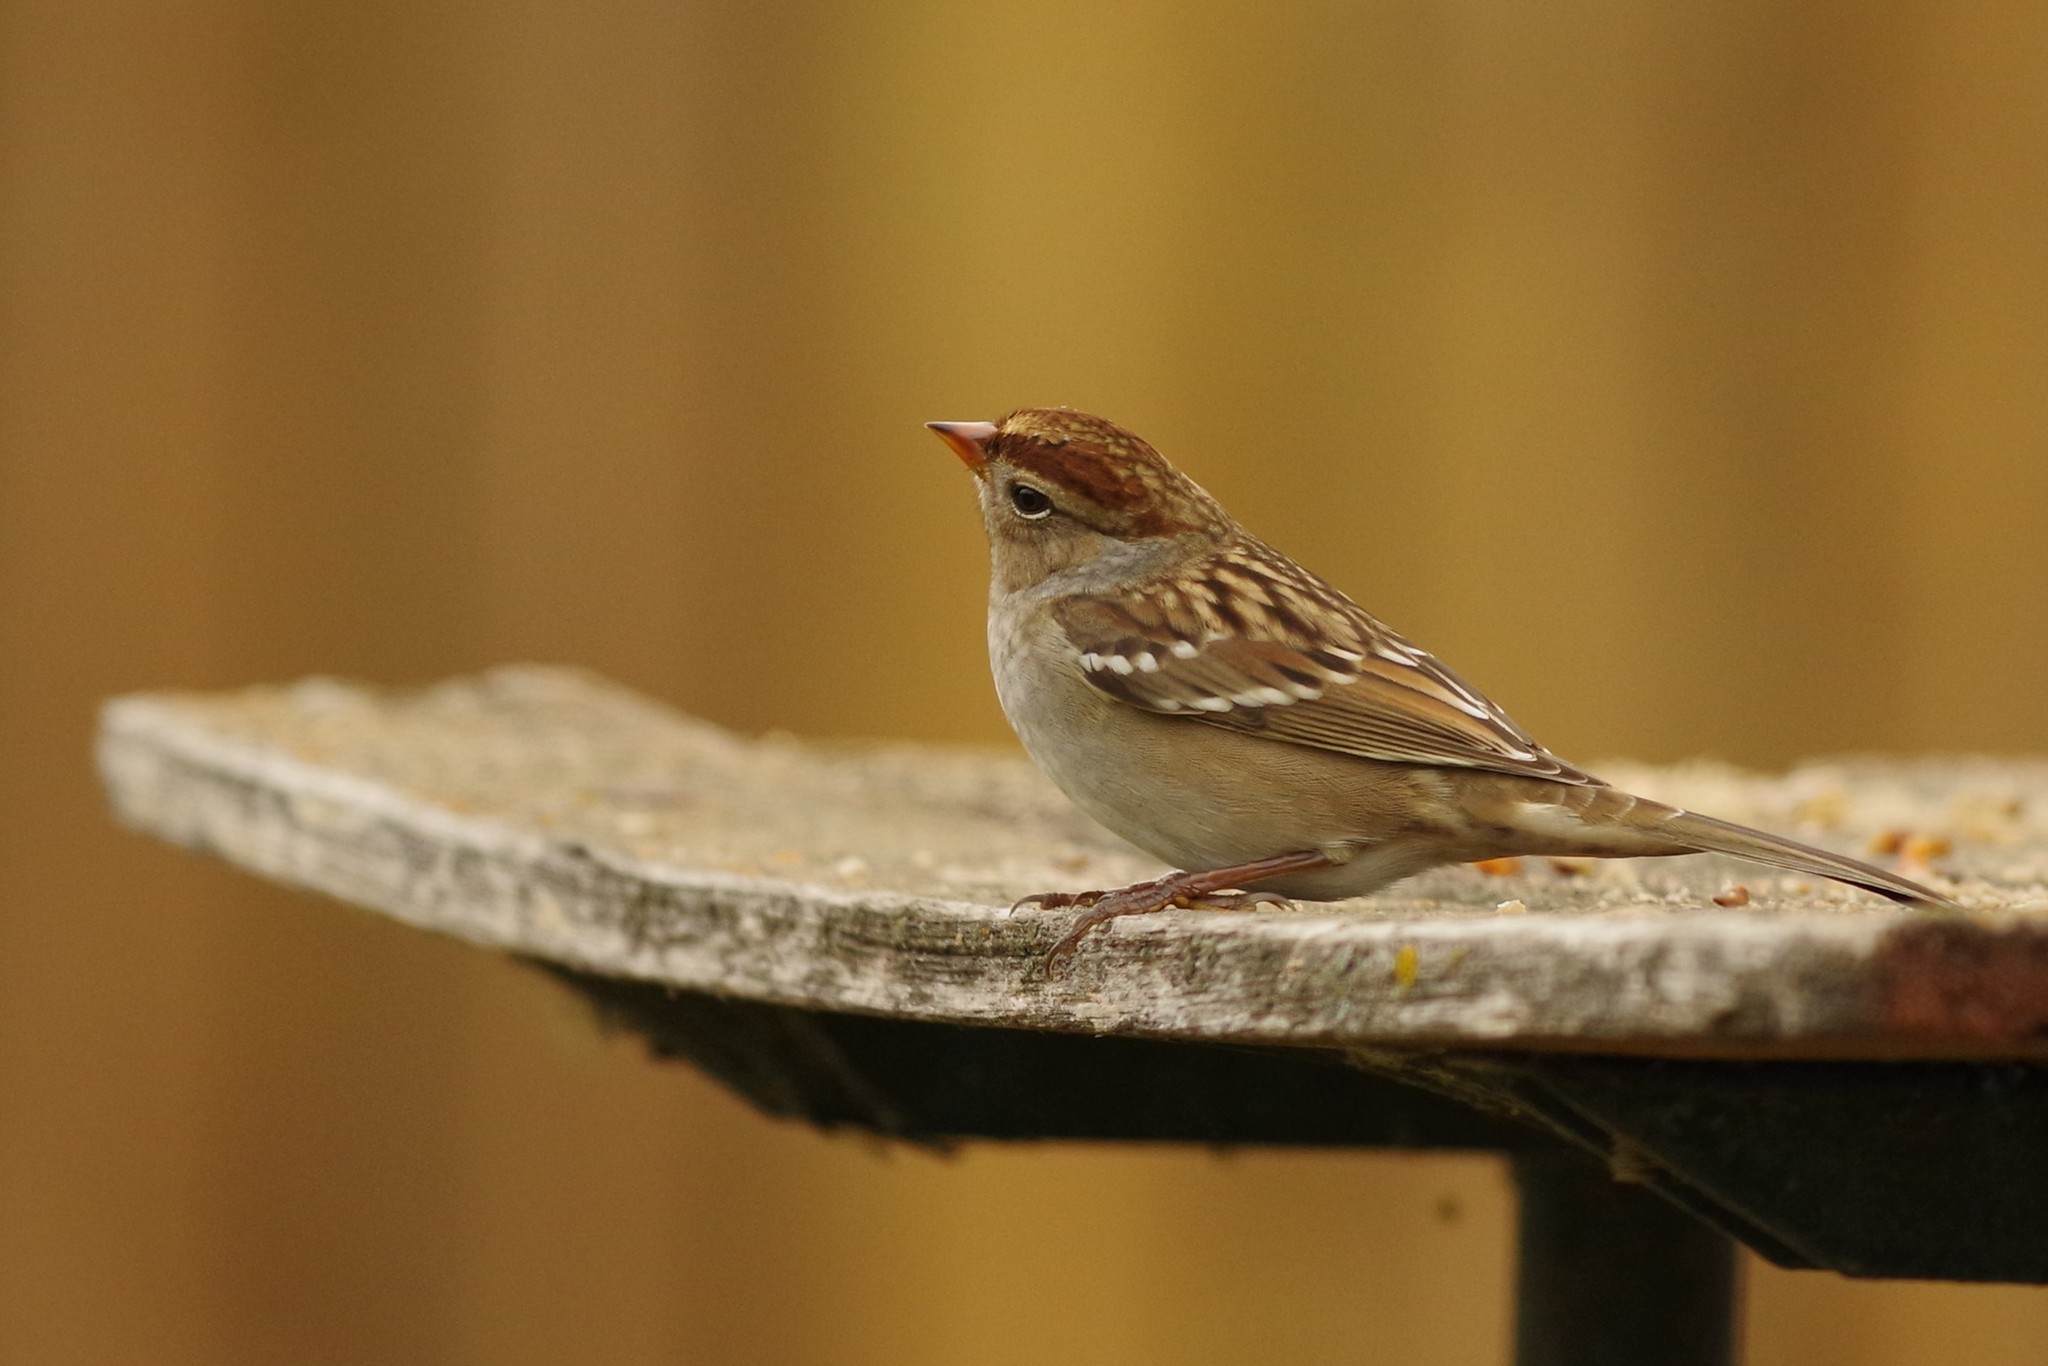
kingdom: Animalia
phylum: Chordata
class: Aves
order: Passeriformes
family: Passerellidae
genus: Zonotrichia
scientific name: Zonotrichia leucophrys
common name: White-crowned sparrow
